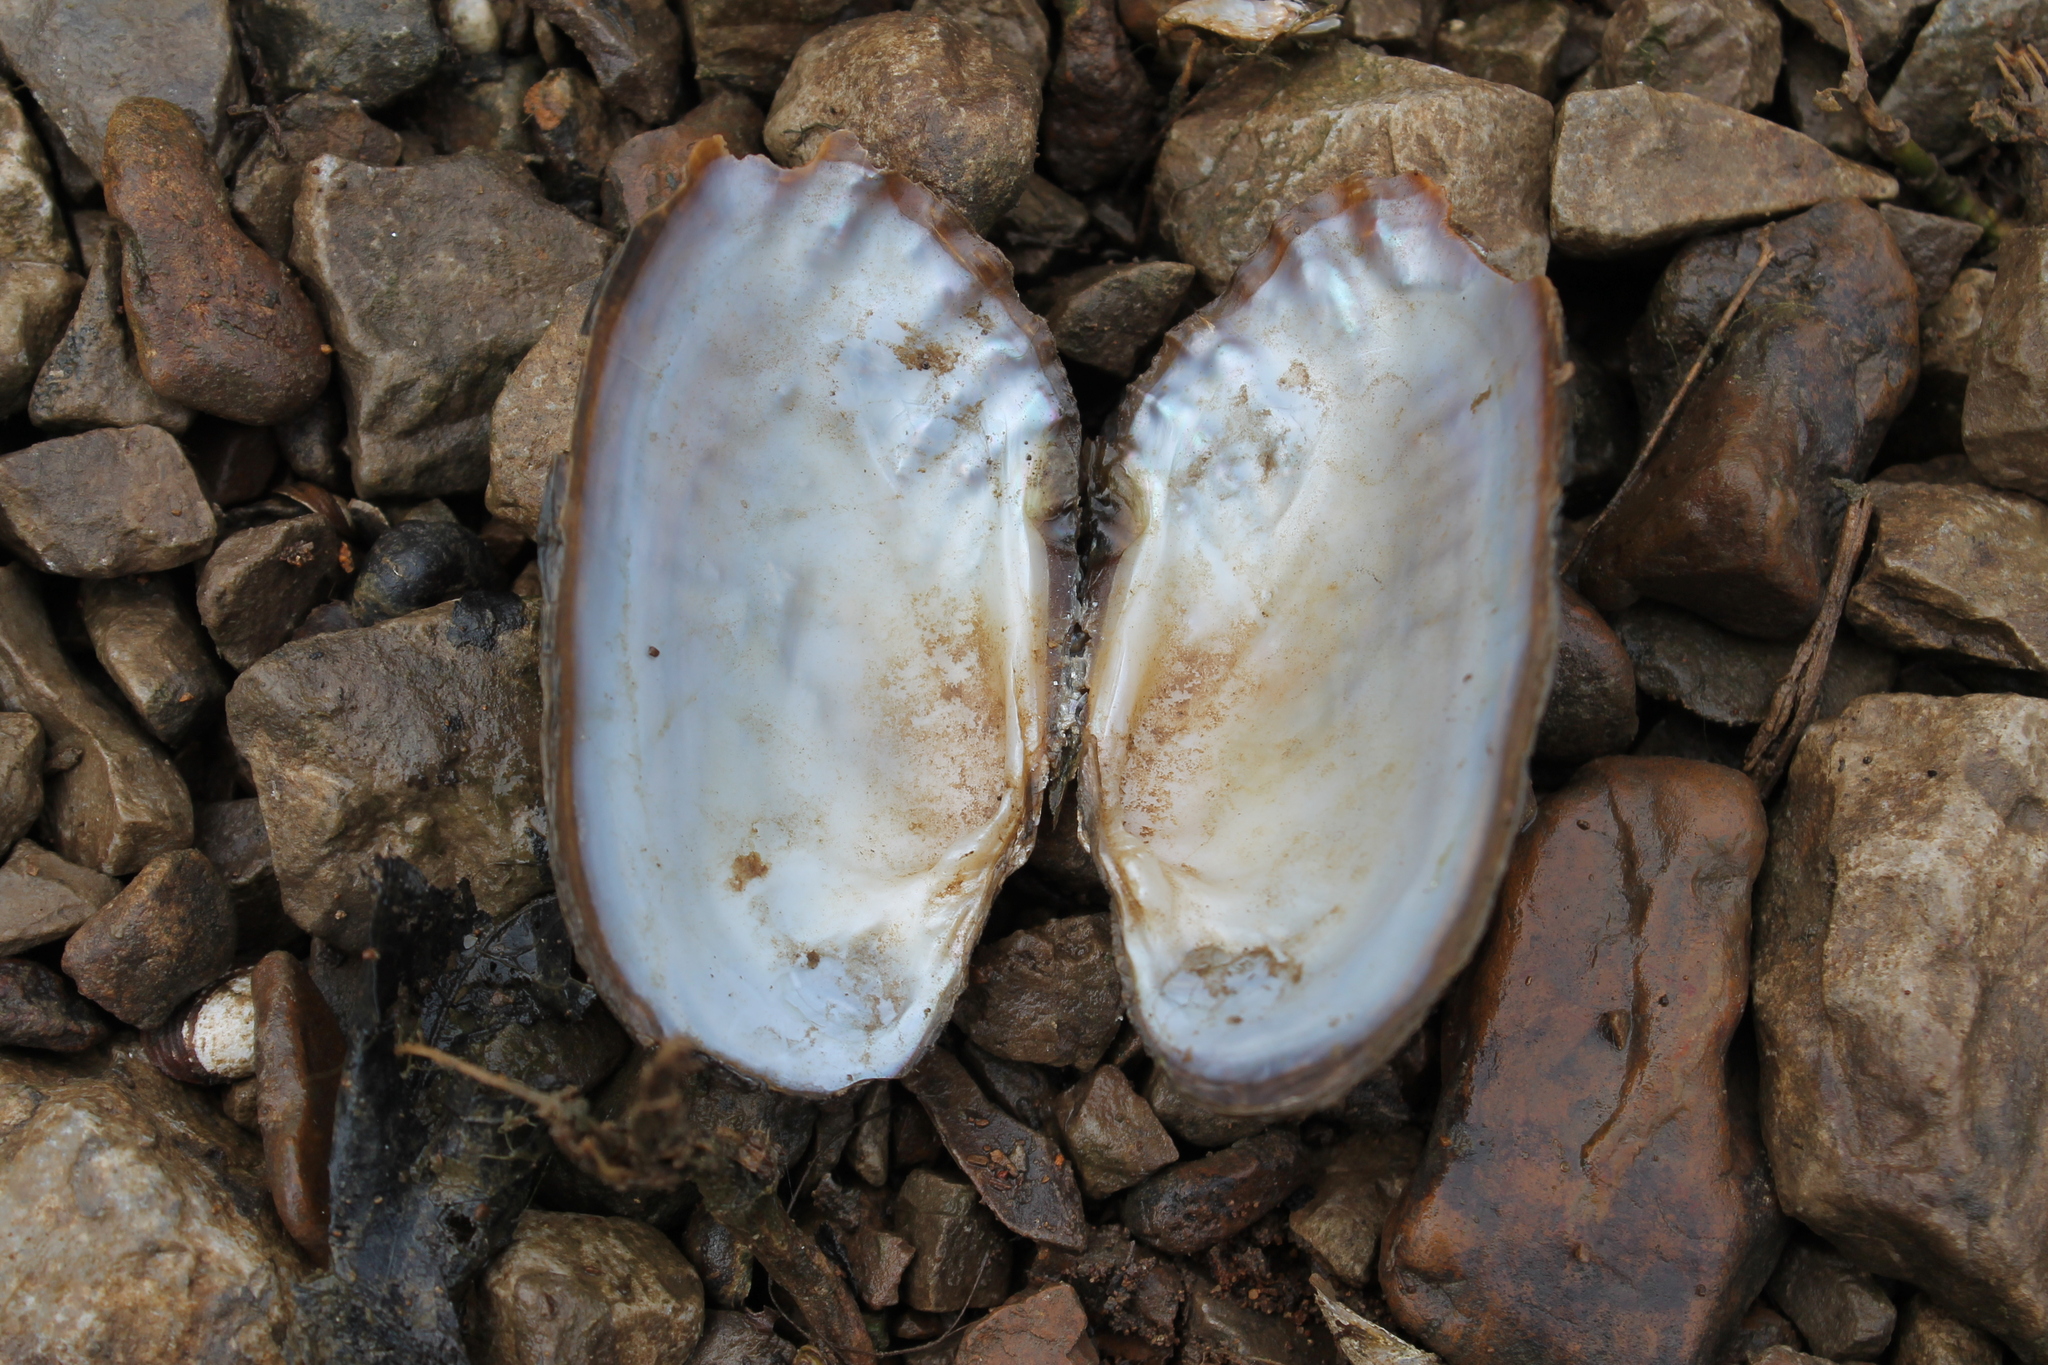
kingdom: Animalia
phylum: Mollusca
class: Bivalvia
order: Unionida
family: Unionidae
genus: Lasmigona
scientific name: Lasmigona costata
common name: Flutedshell
